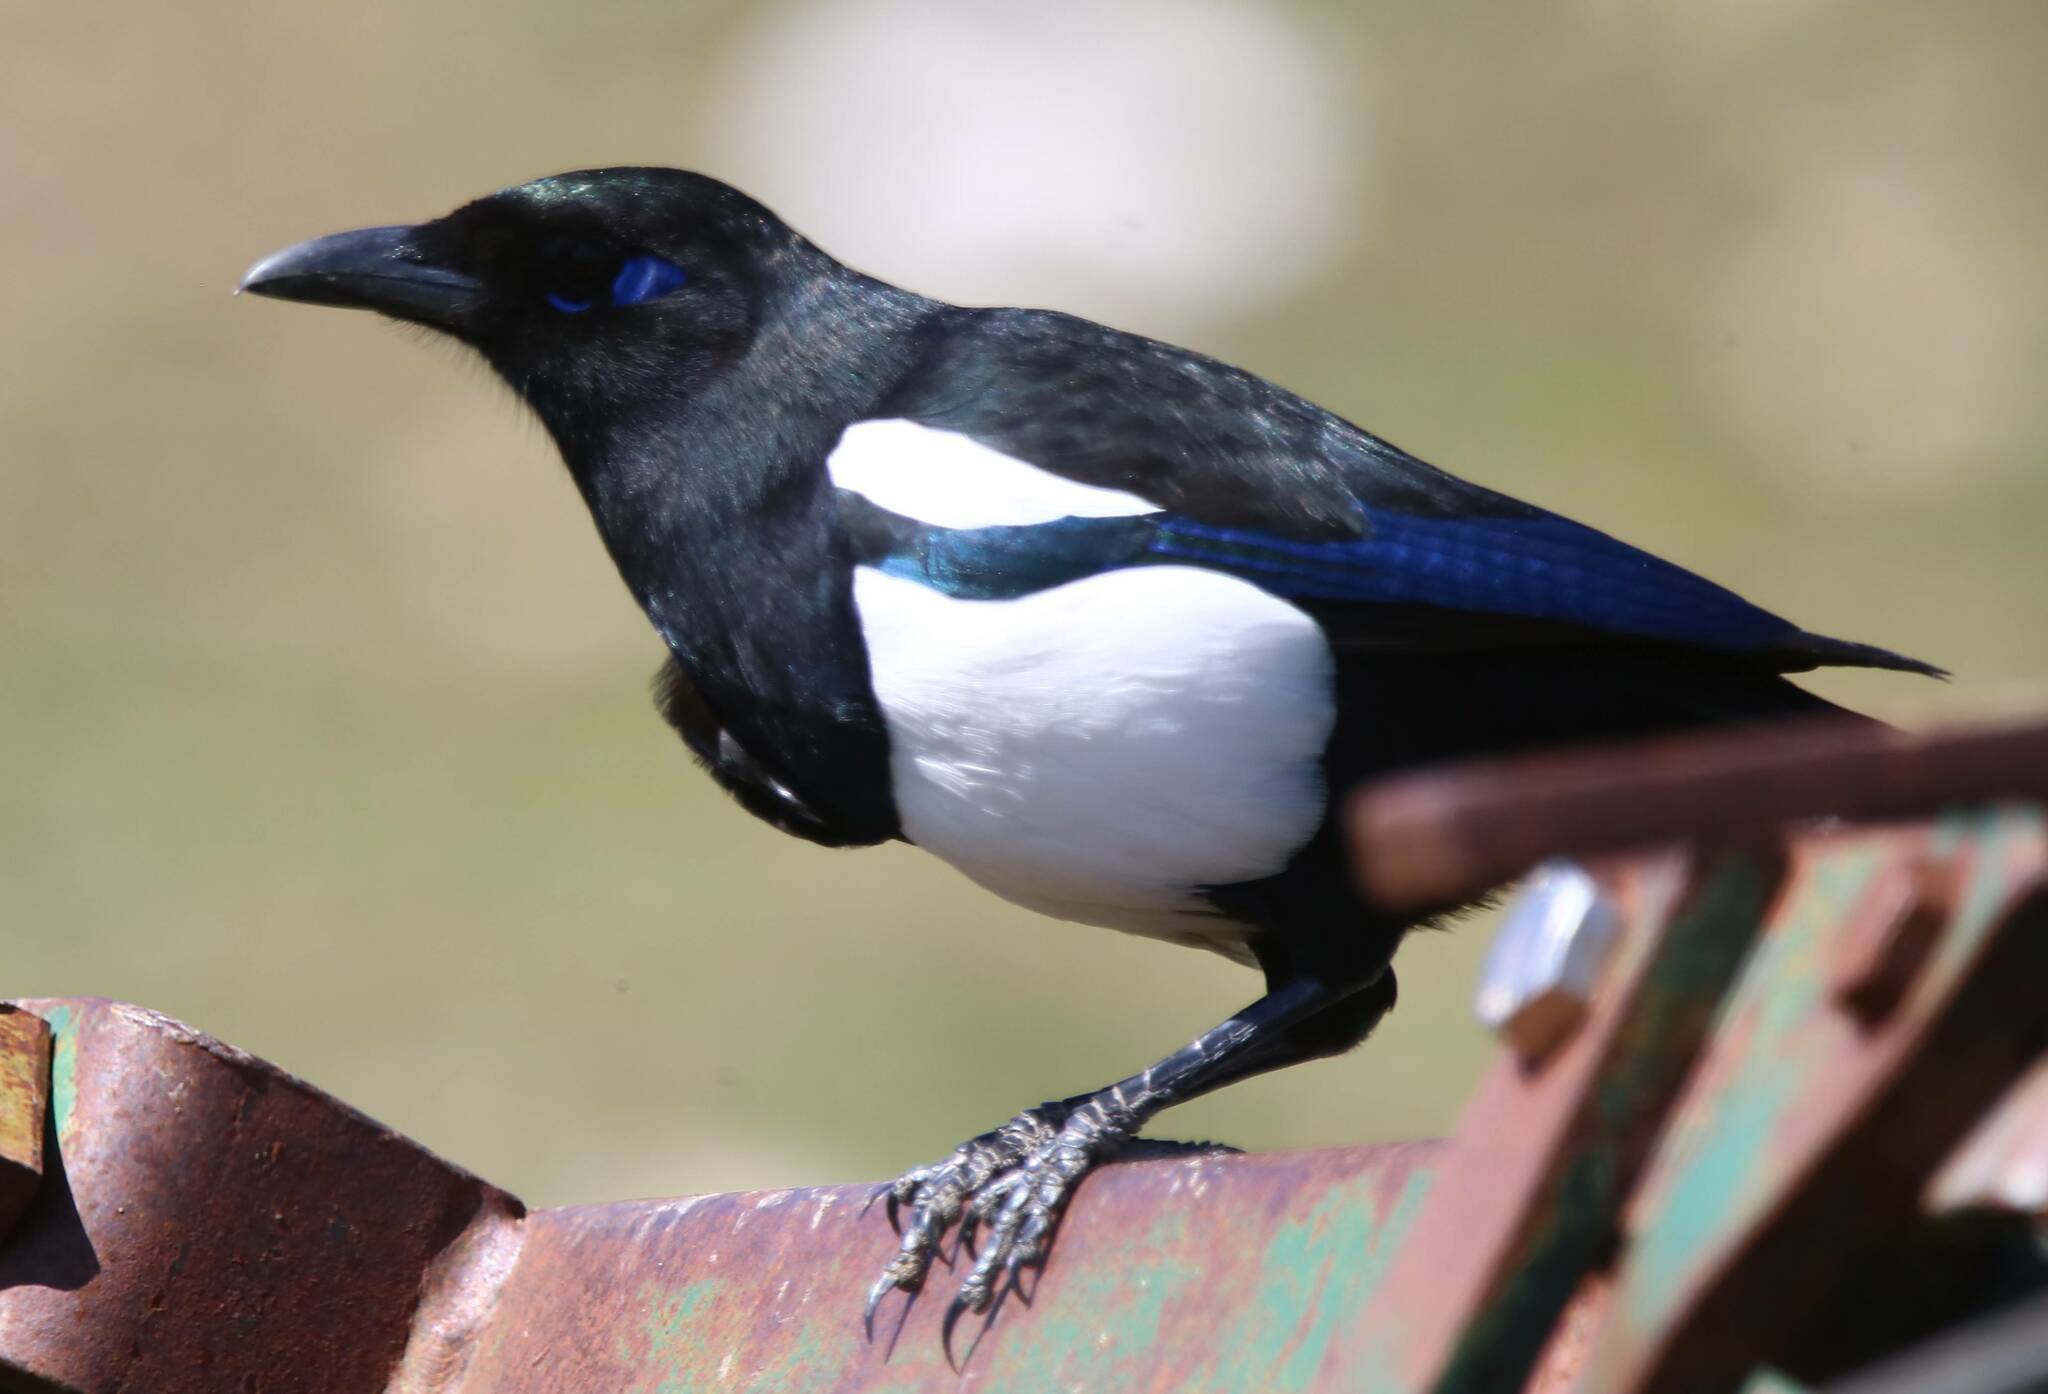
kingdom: Animalia
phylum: Chordata
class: Aves
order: Passeriformes
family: Corvidae
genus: Pica
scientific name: Pica mauritanica
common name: Maghreb magpie
